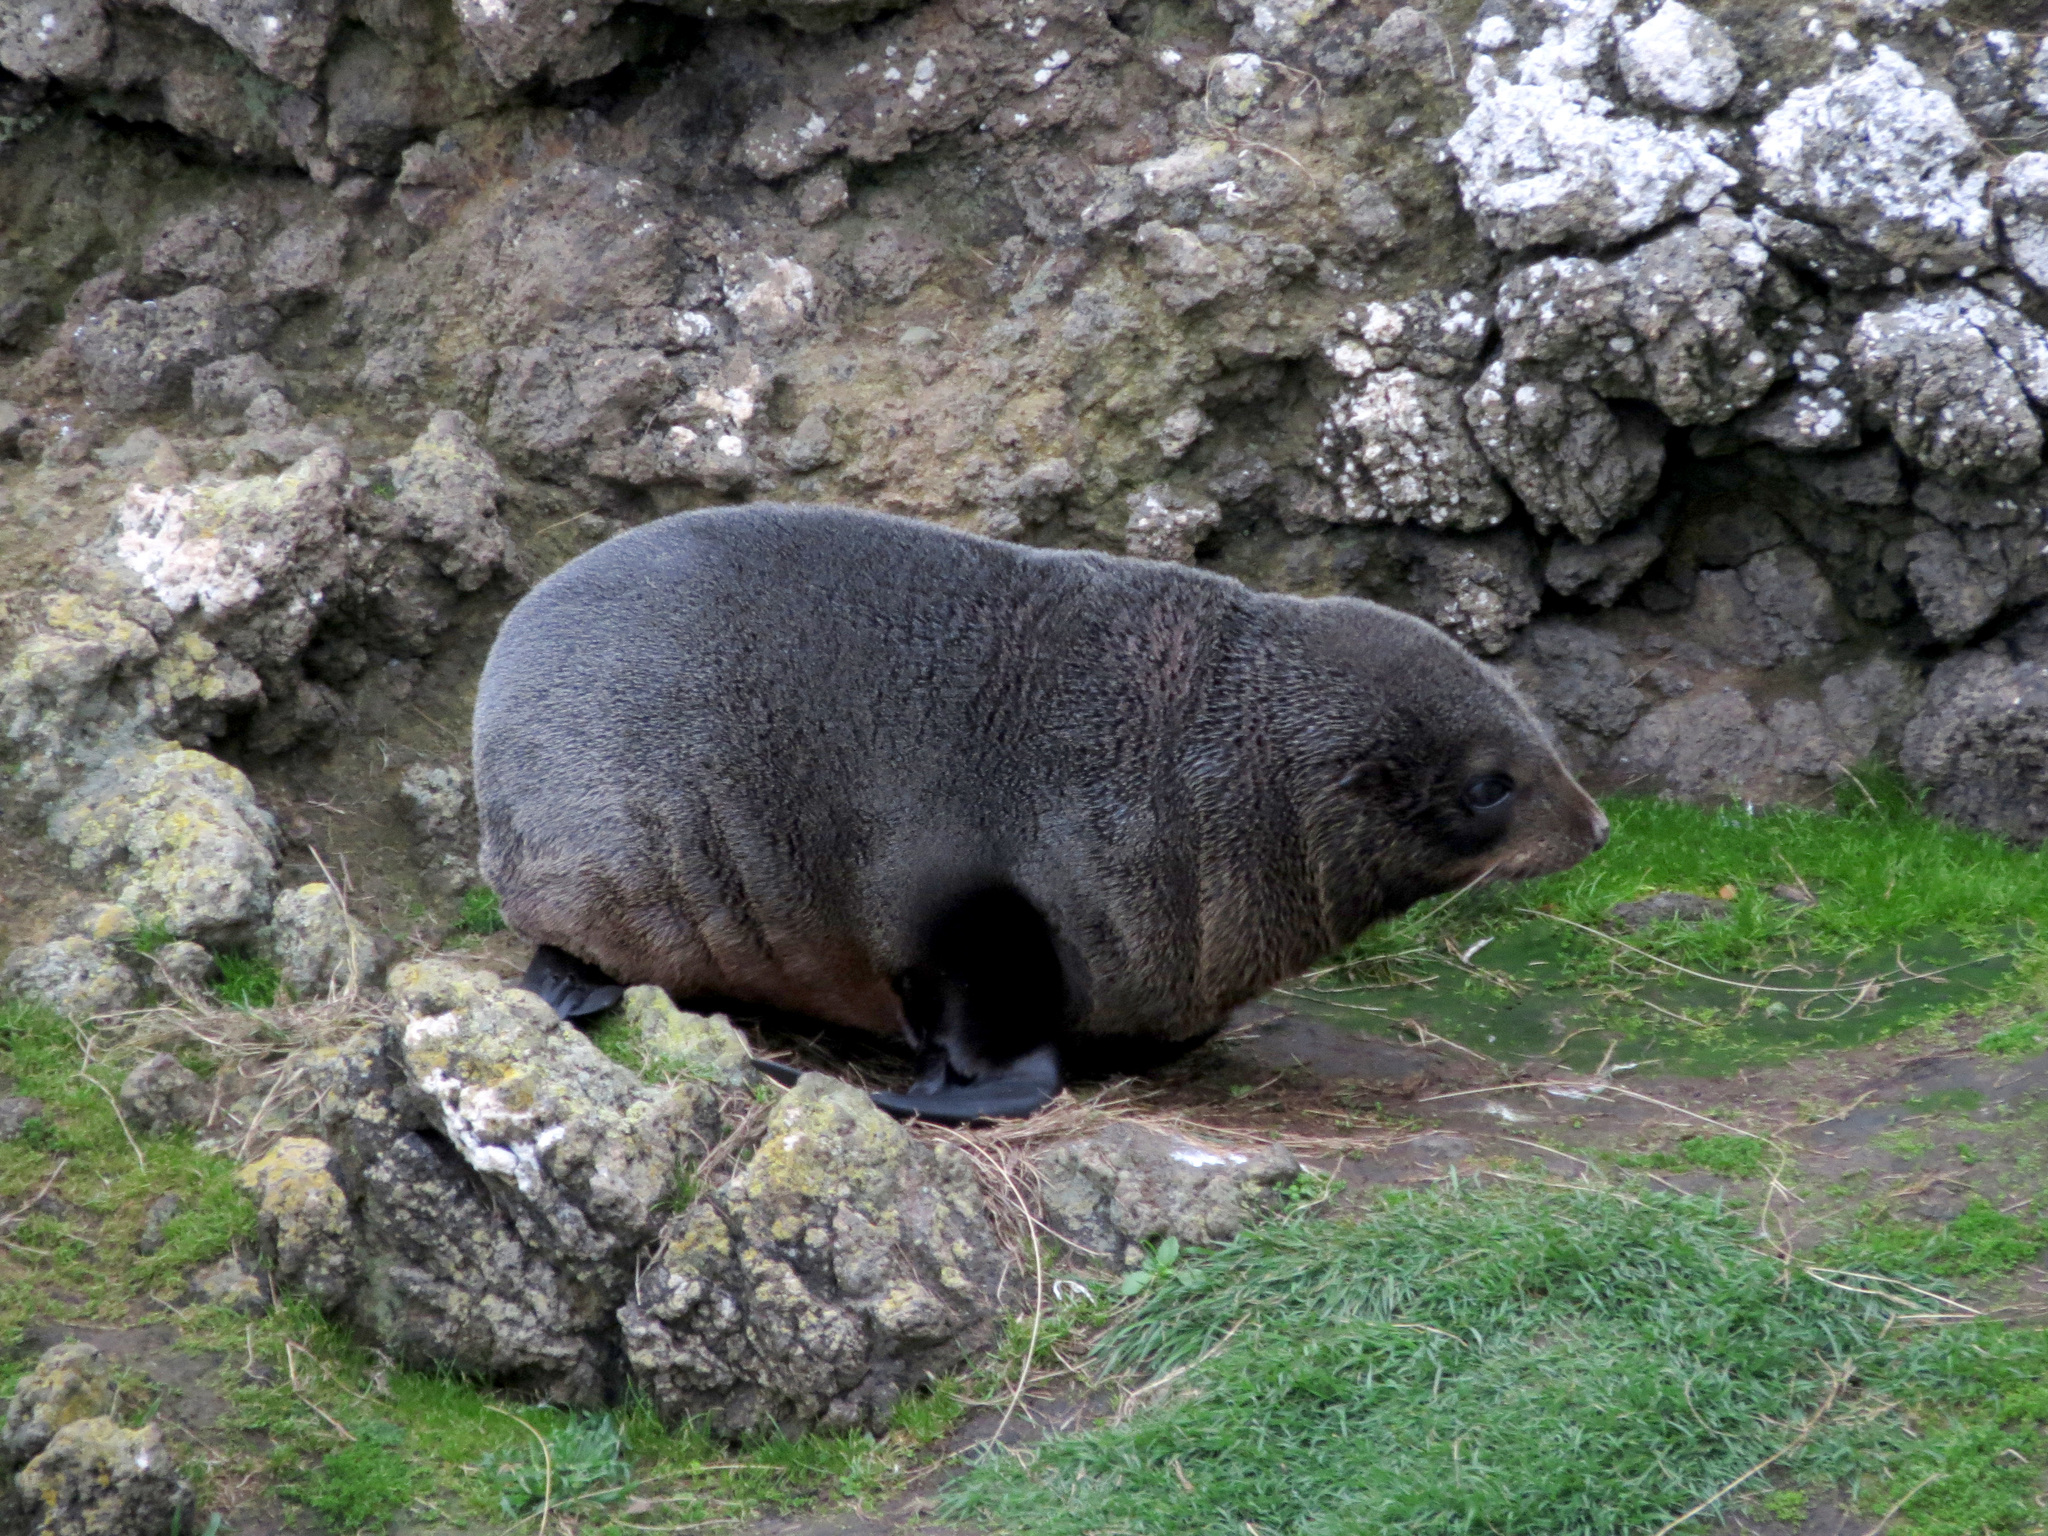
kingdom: Animalia
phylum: Chordata
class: Mammalia
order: Carnivora
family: Otariidae
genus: Arctocephalus
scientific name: Arctocephalus forsteri
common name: New zealand fur seal
